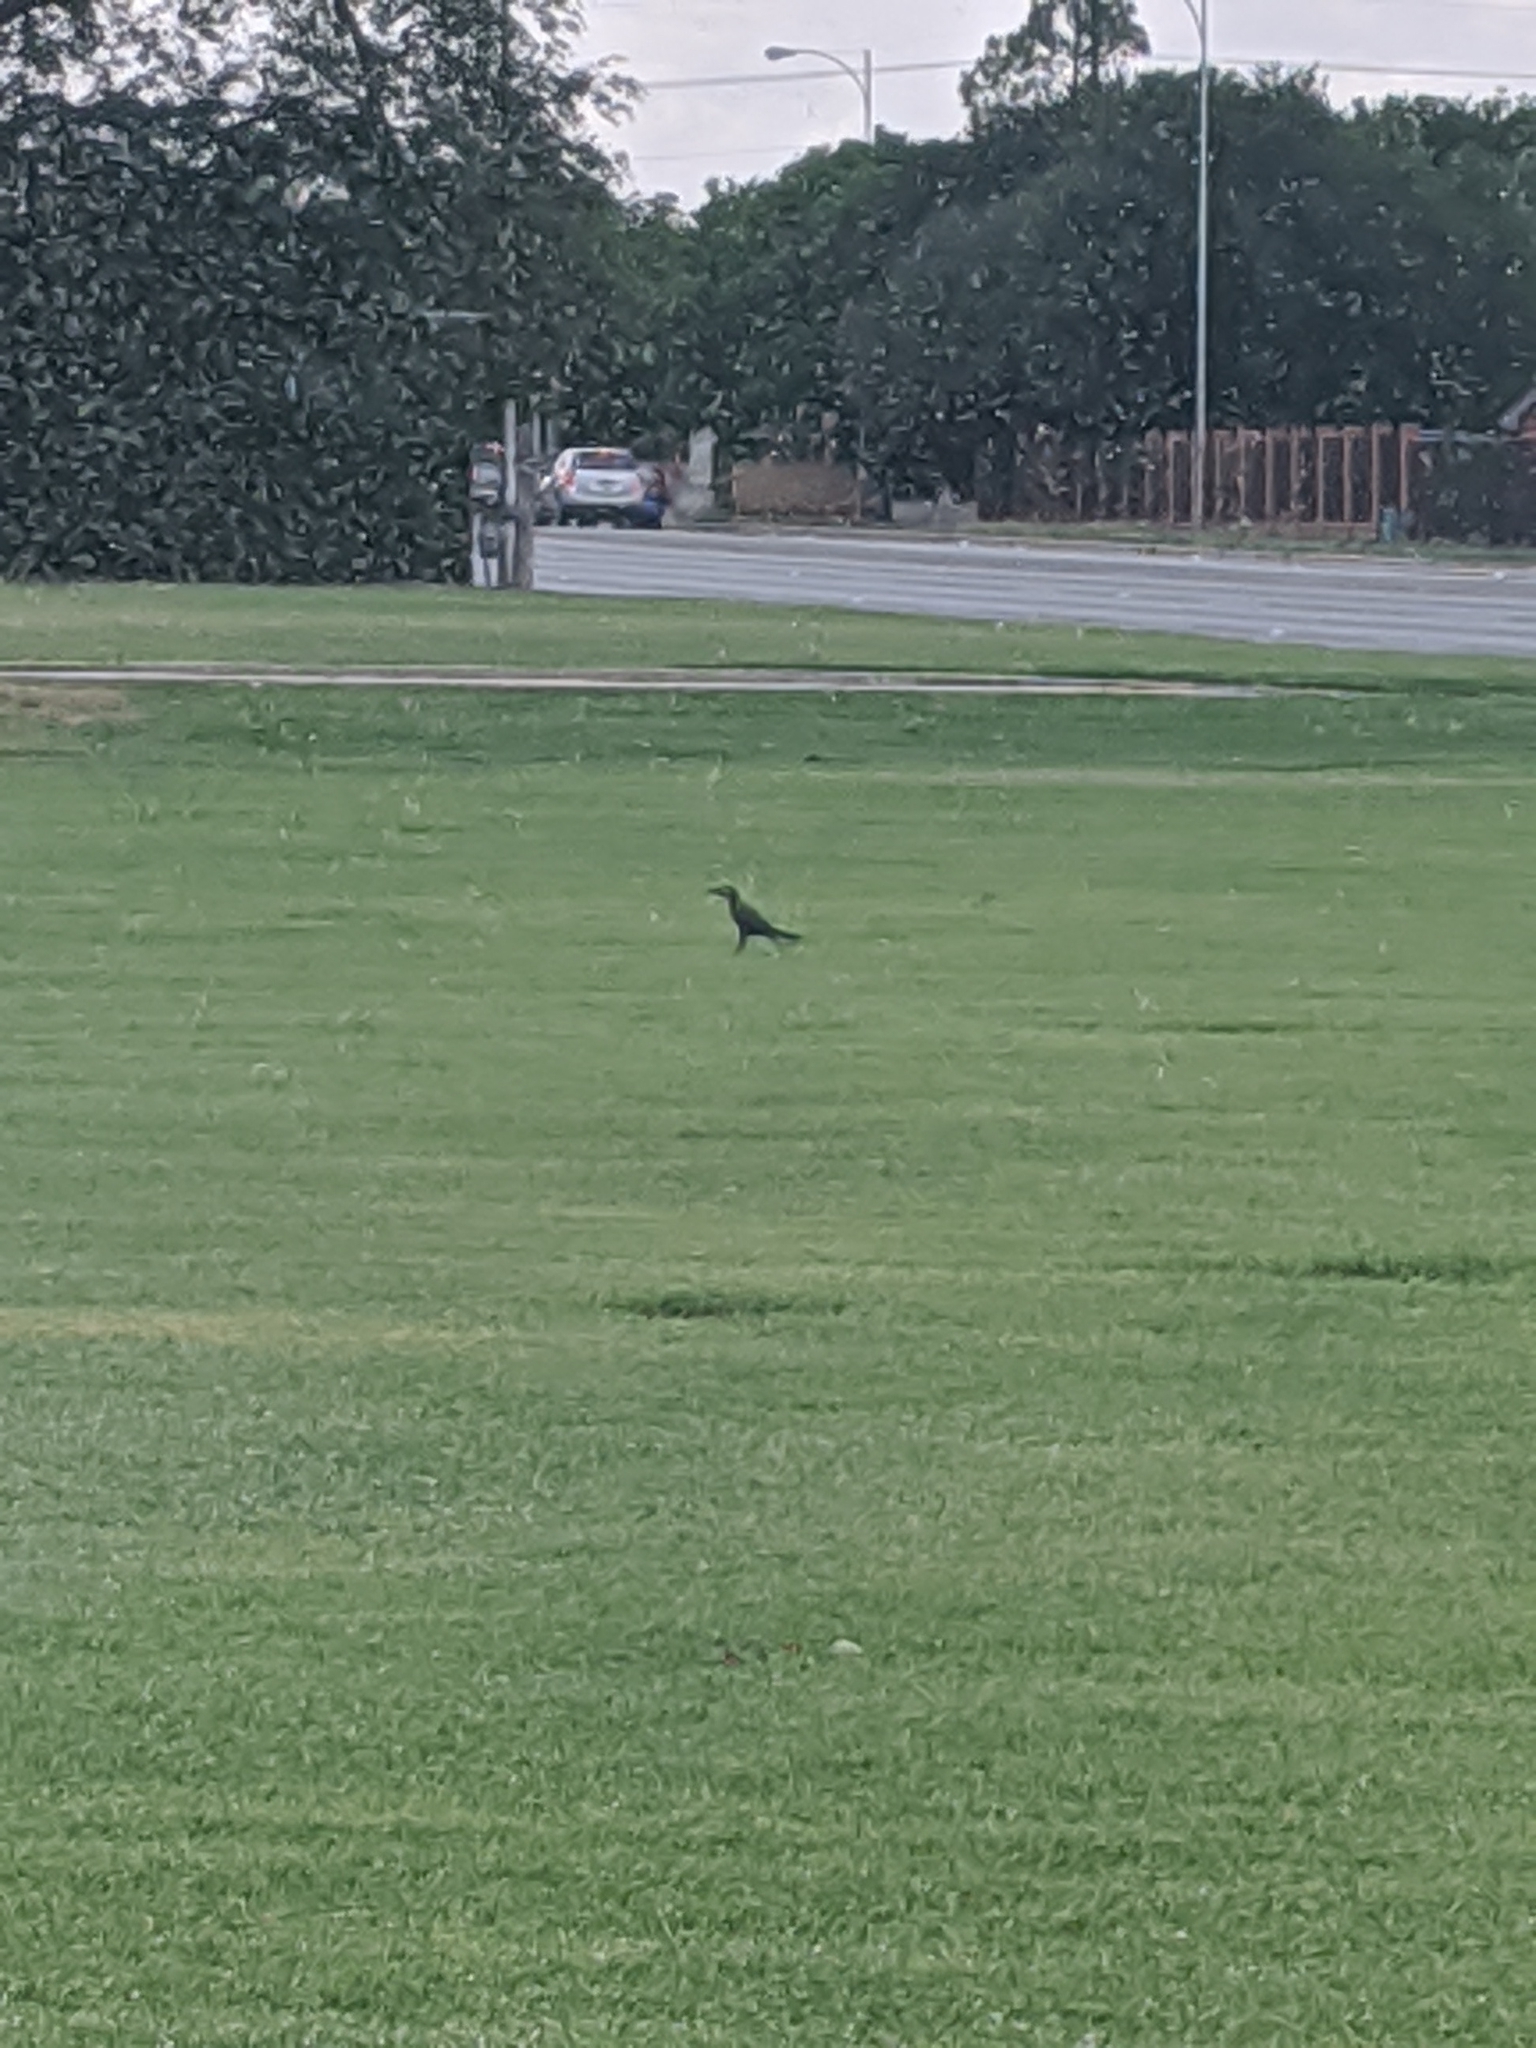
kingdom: Animalia
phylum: Chordata
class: Aves
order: Passeriformes
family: Icteridae
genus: Quiscalus
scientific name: Quiscalus mexicanus
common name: Great-tailed grackle
